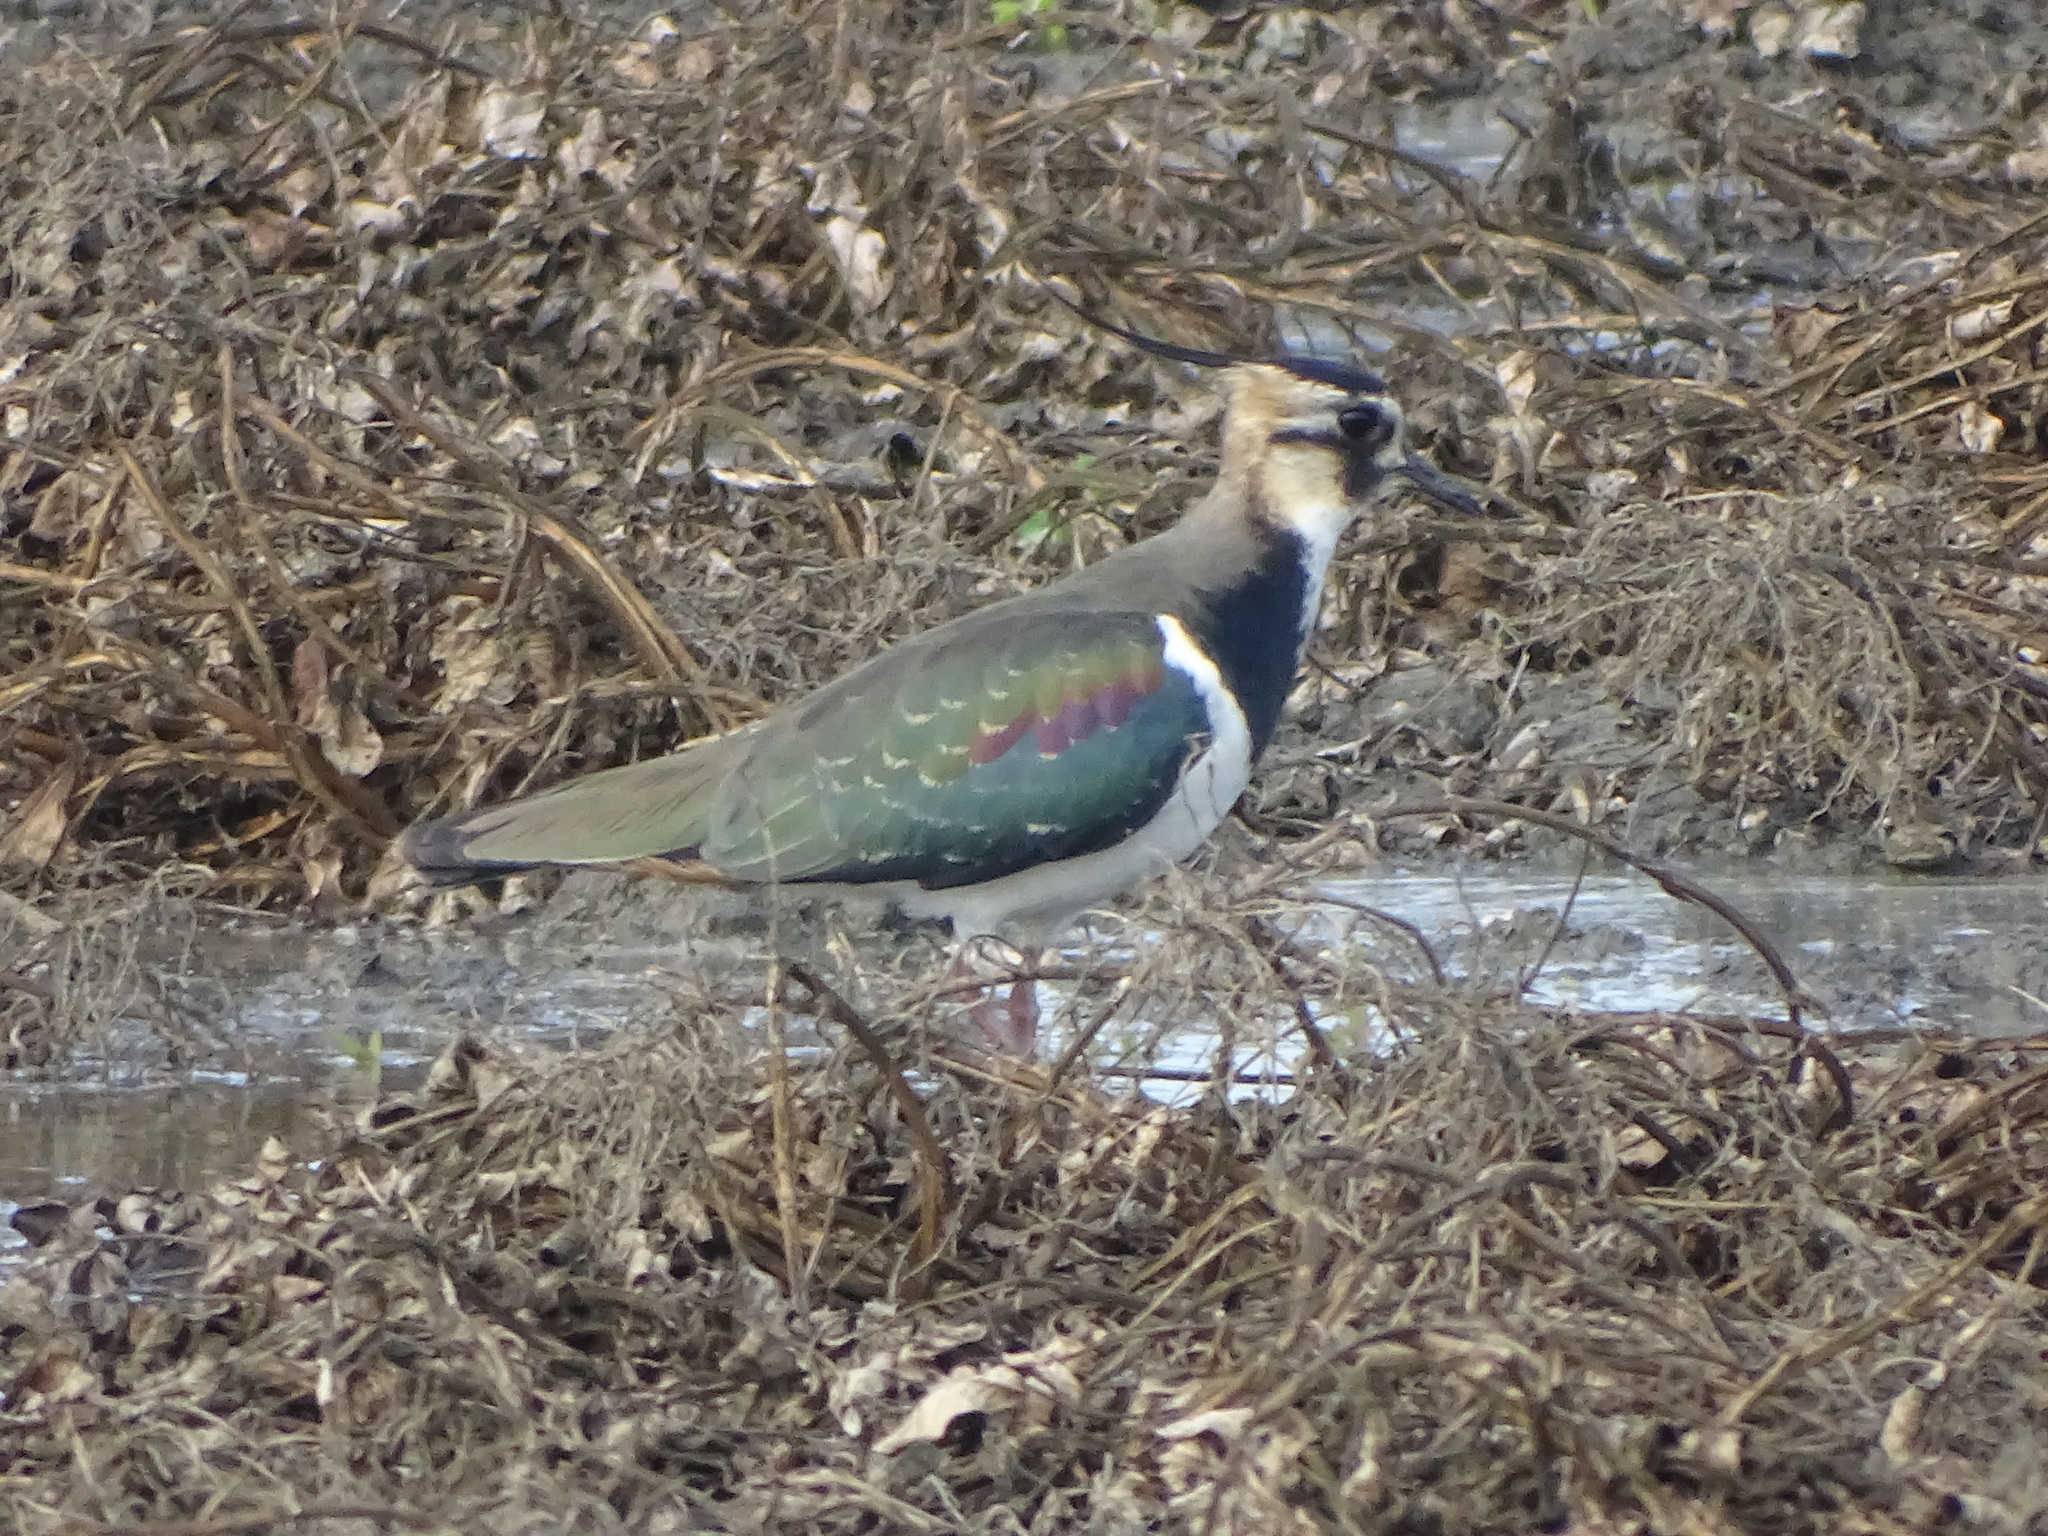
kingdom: Animalia
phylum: Chordata
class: Aves
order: Charadriiformes
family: Charadriidae
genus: Vanellus
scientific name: Vanellus vanellus
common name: Northern lapwing
